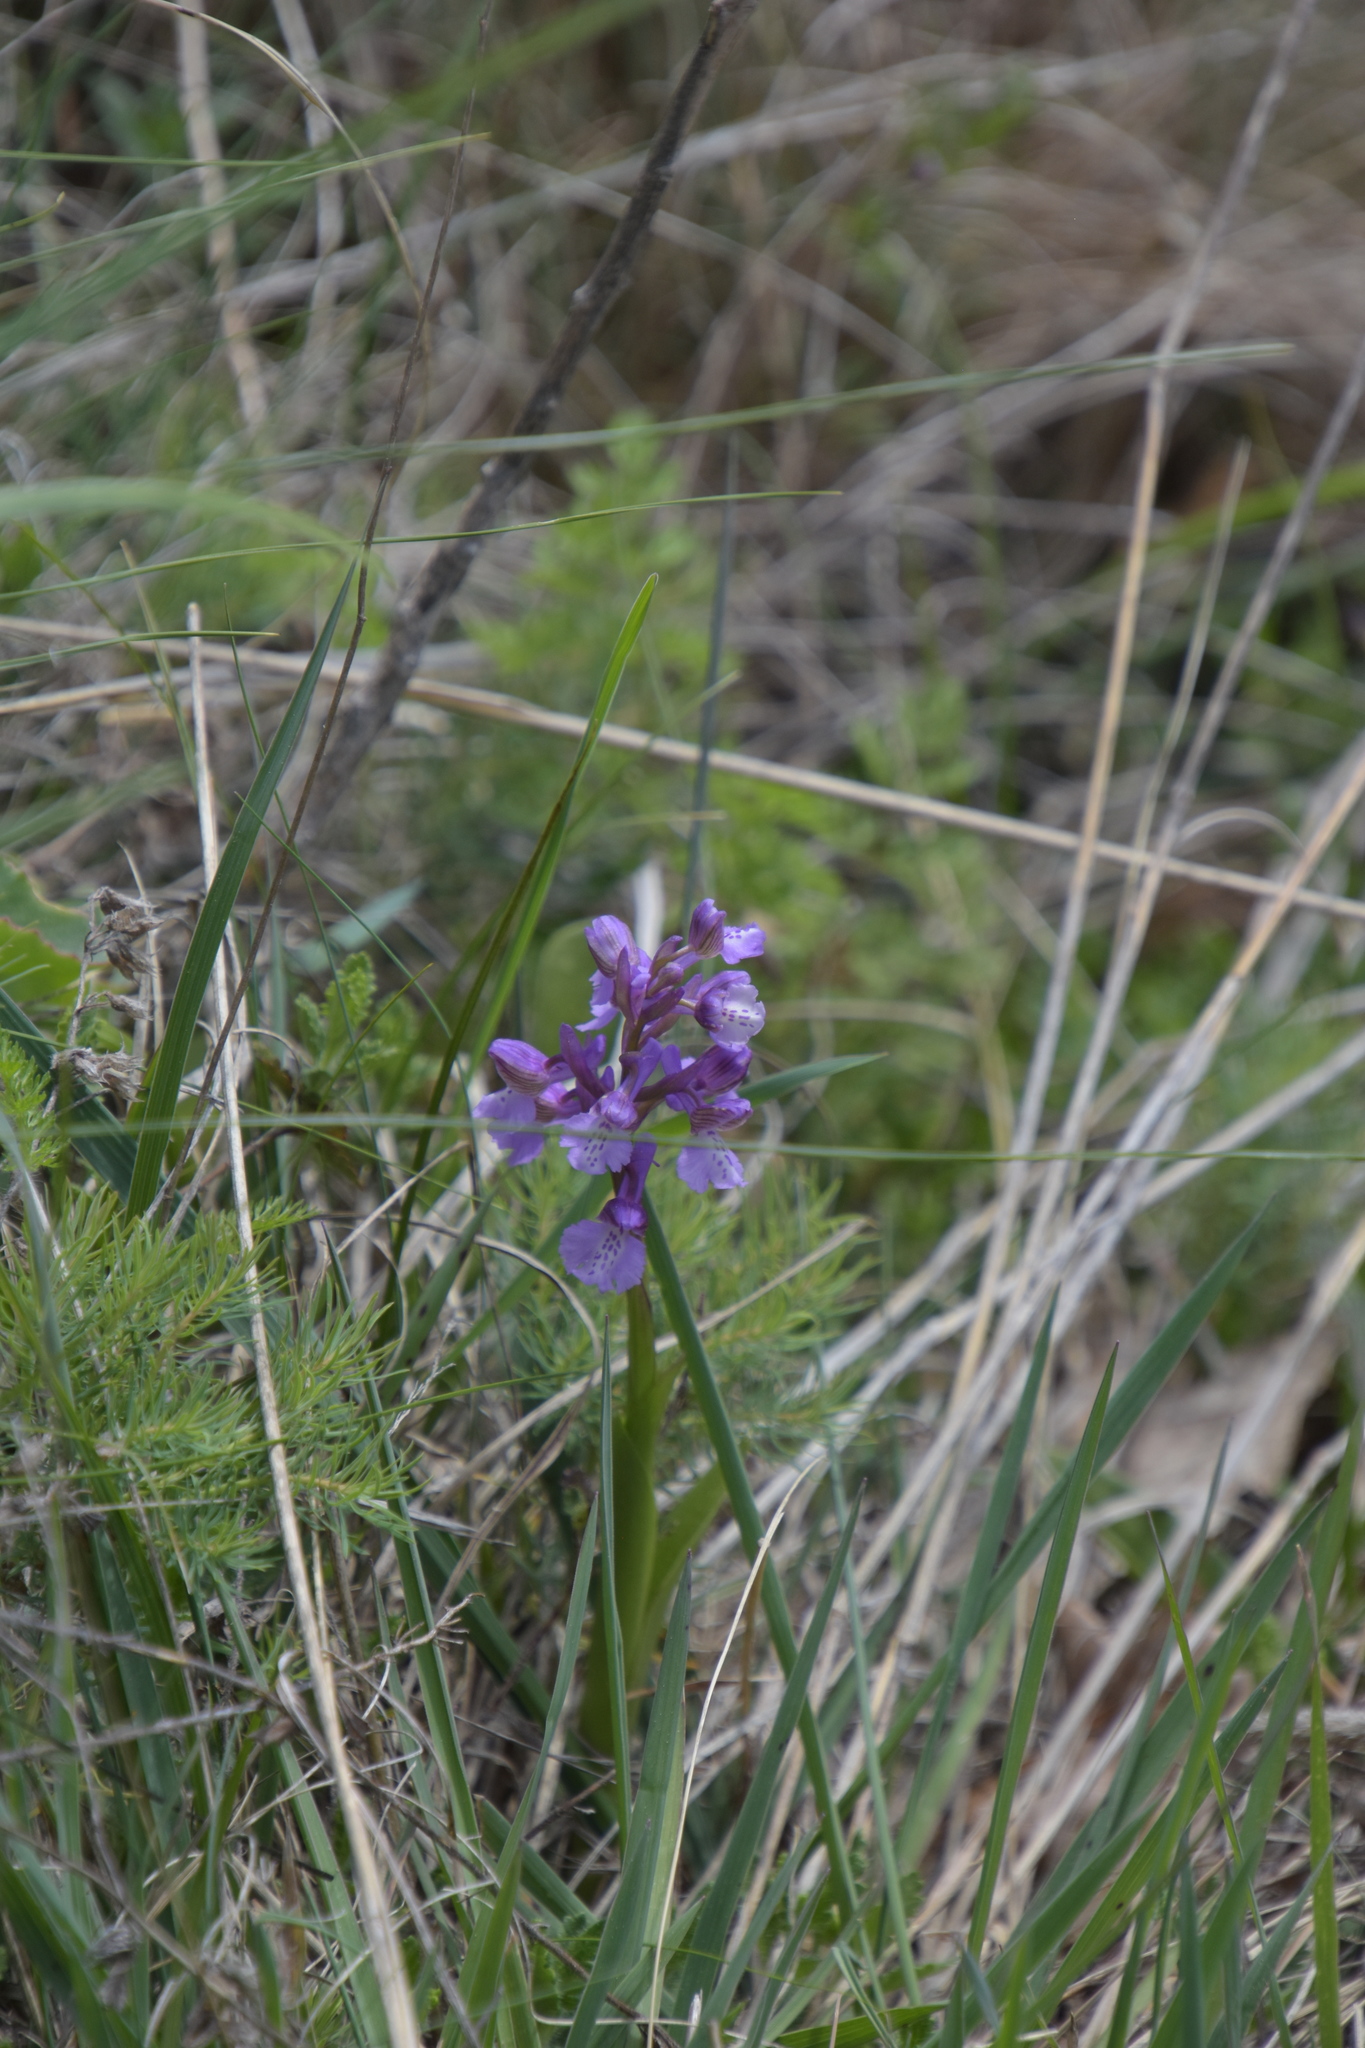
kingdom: Plantae
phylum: Tracheophyta
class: Liliopsida
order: Asparagales
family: Orchidaceae
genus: Anacamptis
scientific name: Anacamptis morio
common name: Green-winged orchid
